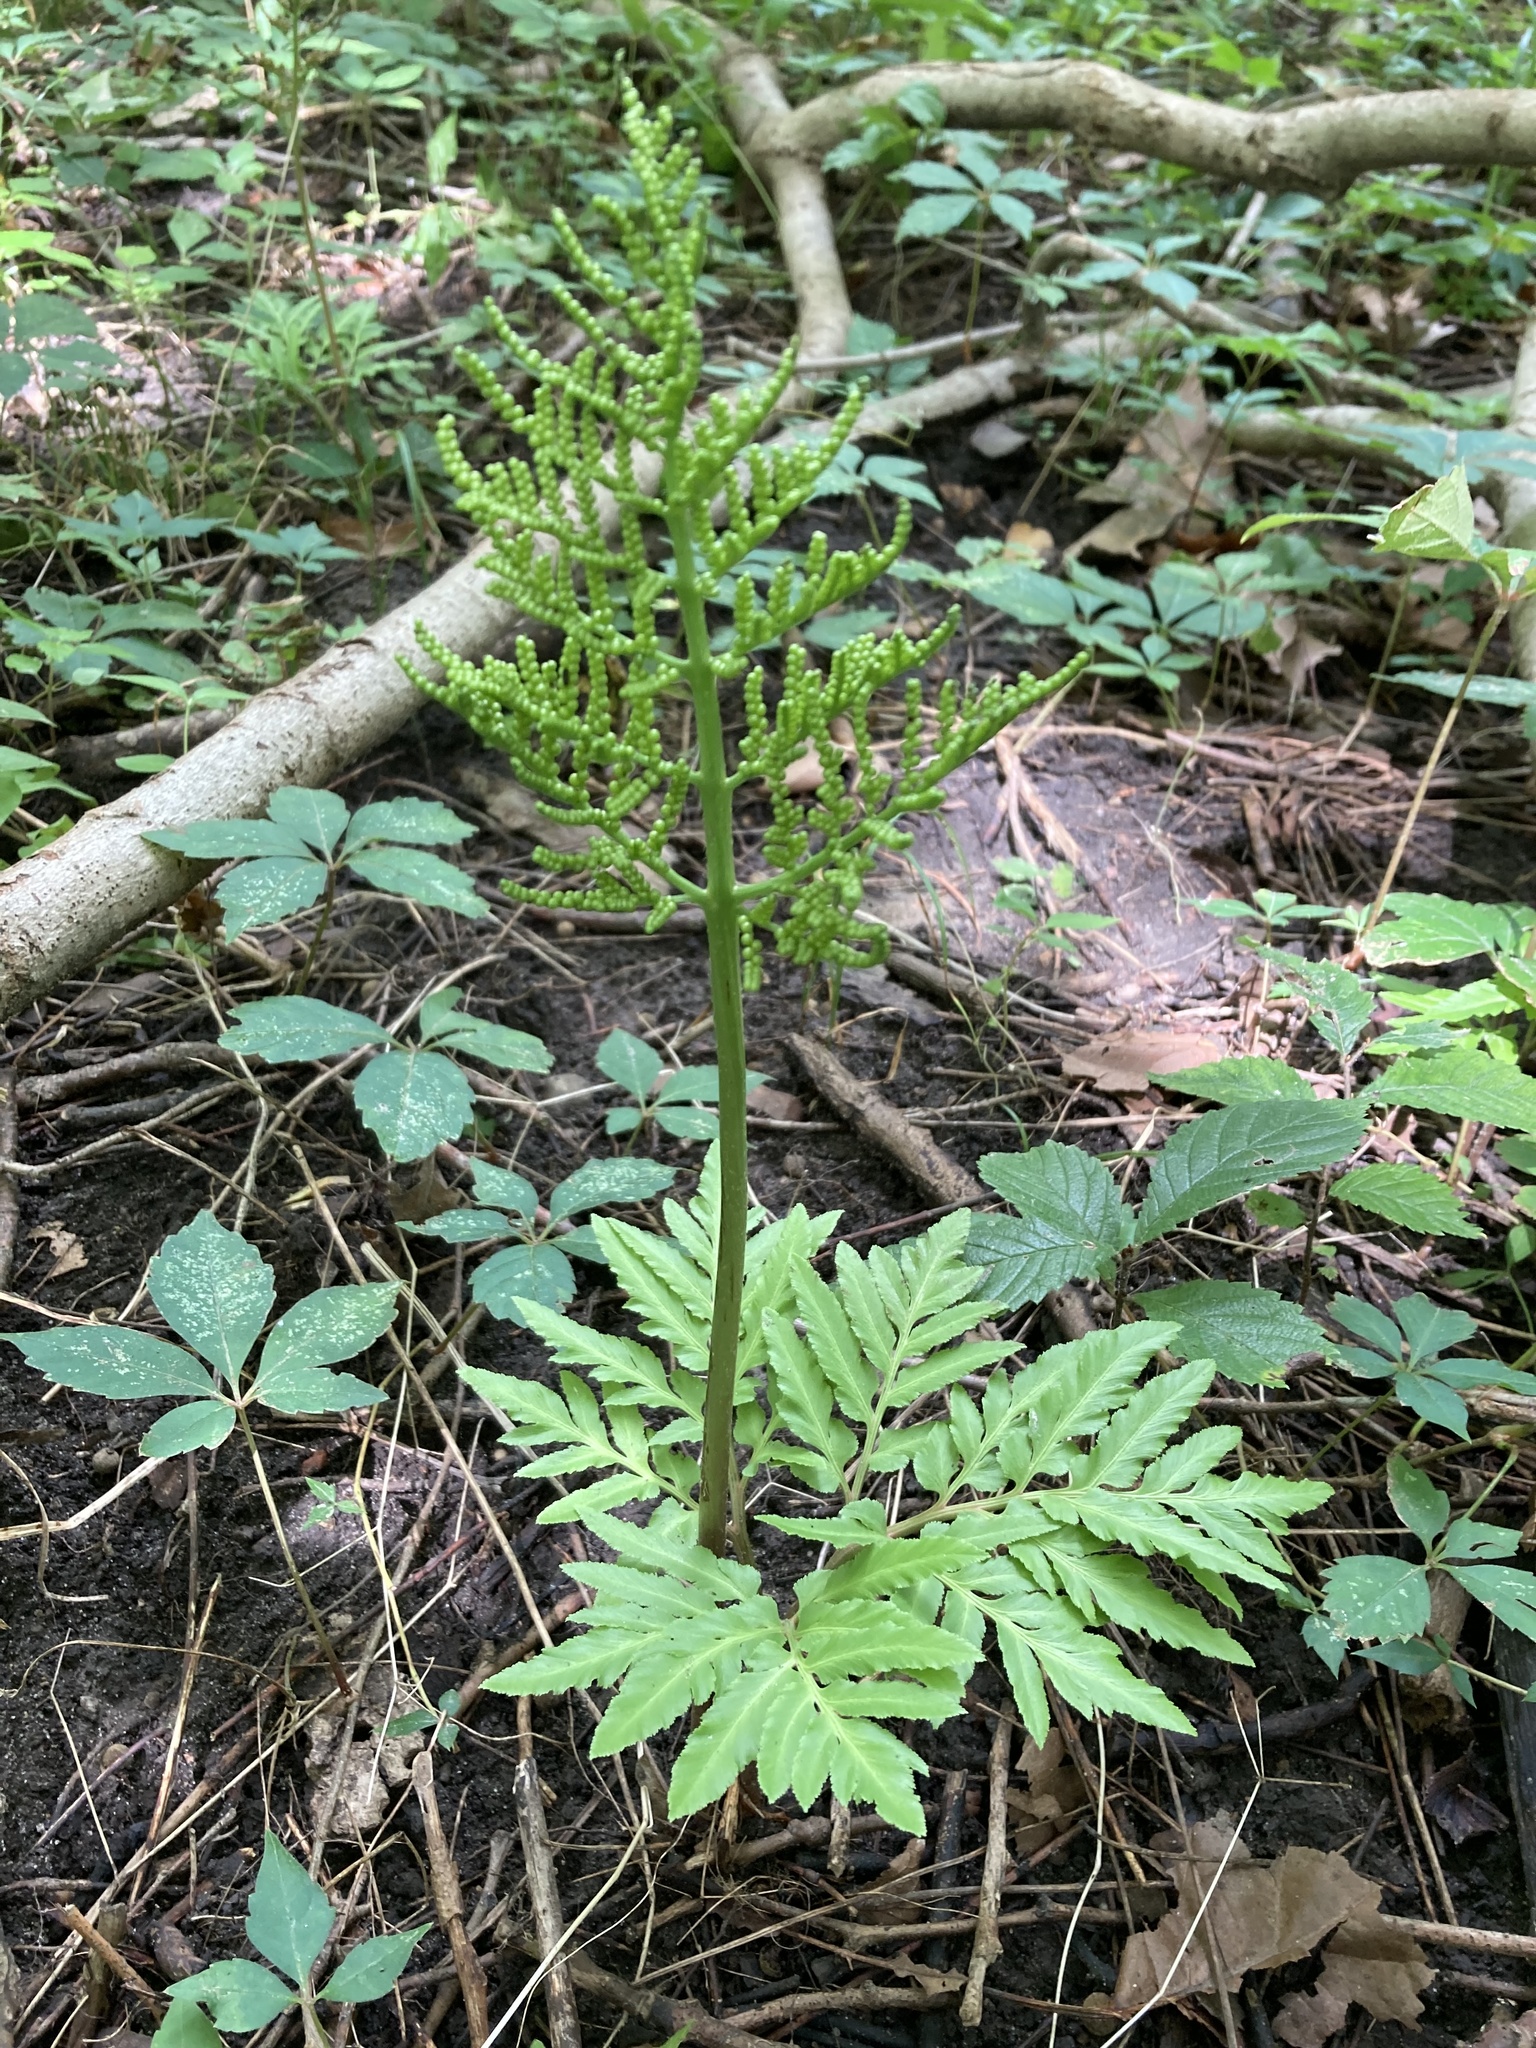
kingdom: Plantae
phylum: Tracheophyta
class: Polypodiopsida
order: Ophioglossales
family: Ophioglossaceae
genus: Sceptridium
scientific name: Sceptridium dissectum
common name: Cut-leaved grapefern
